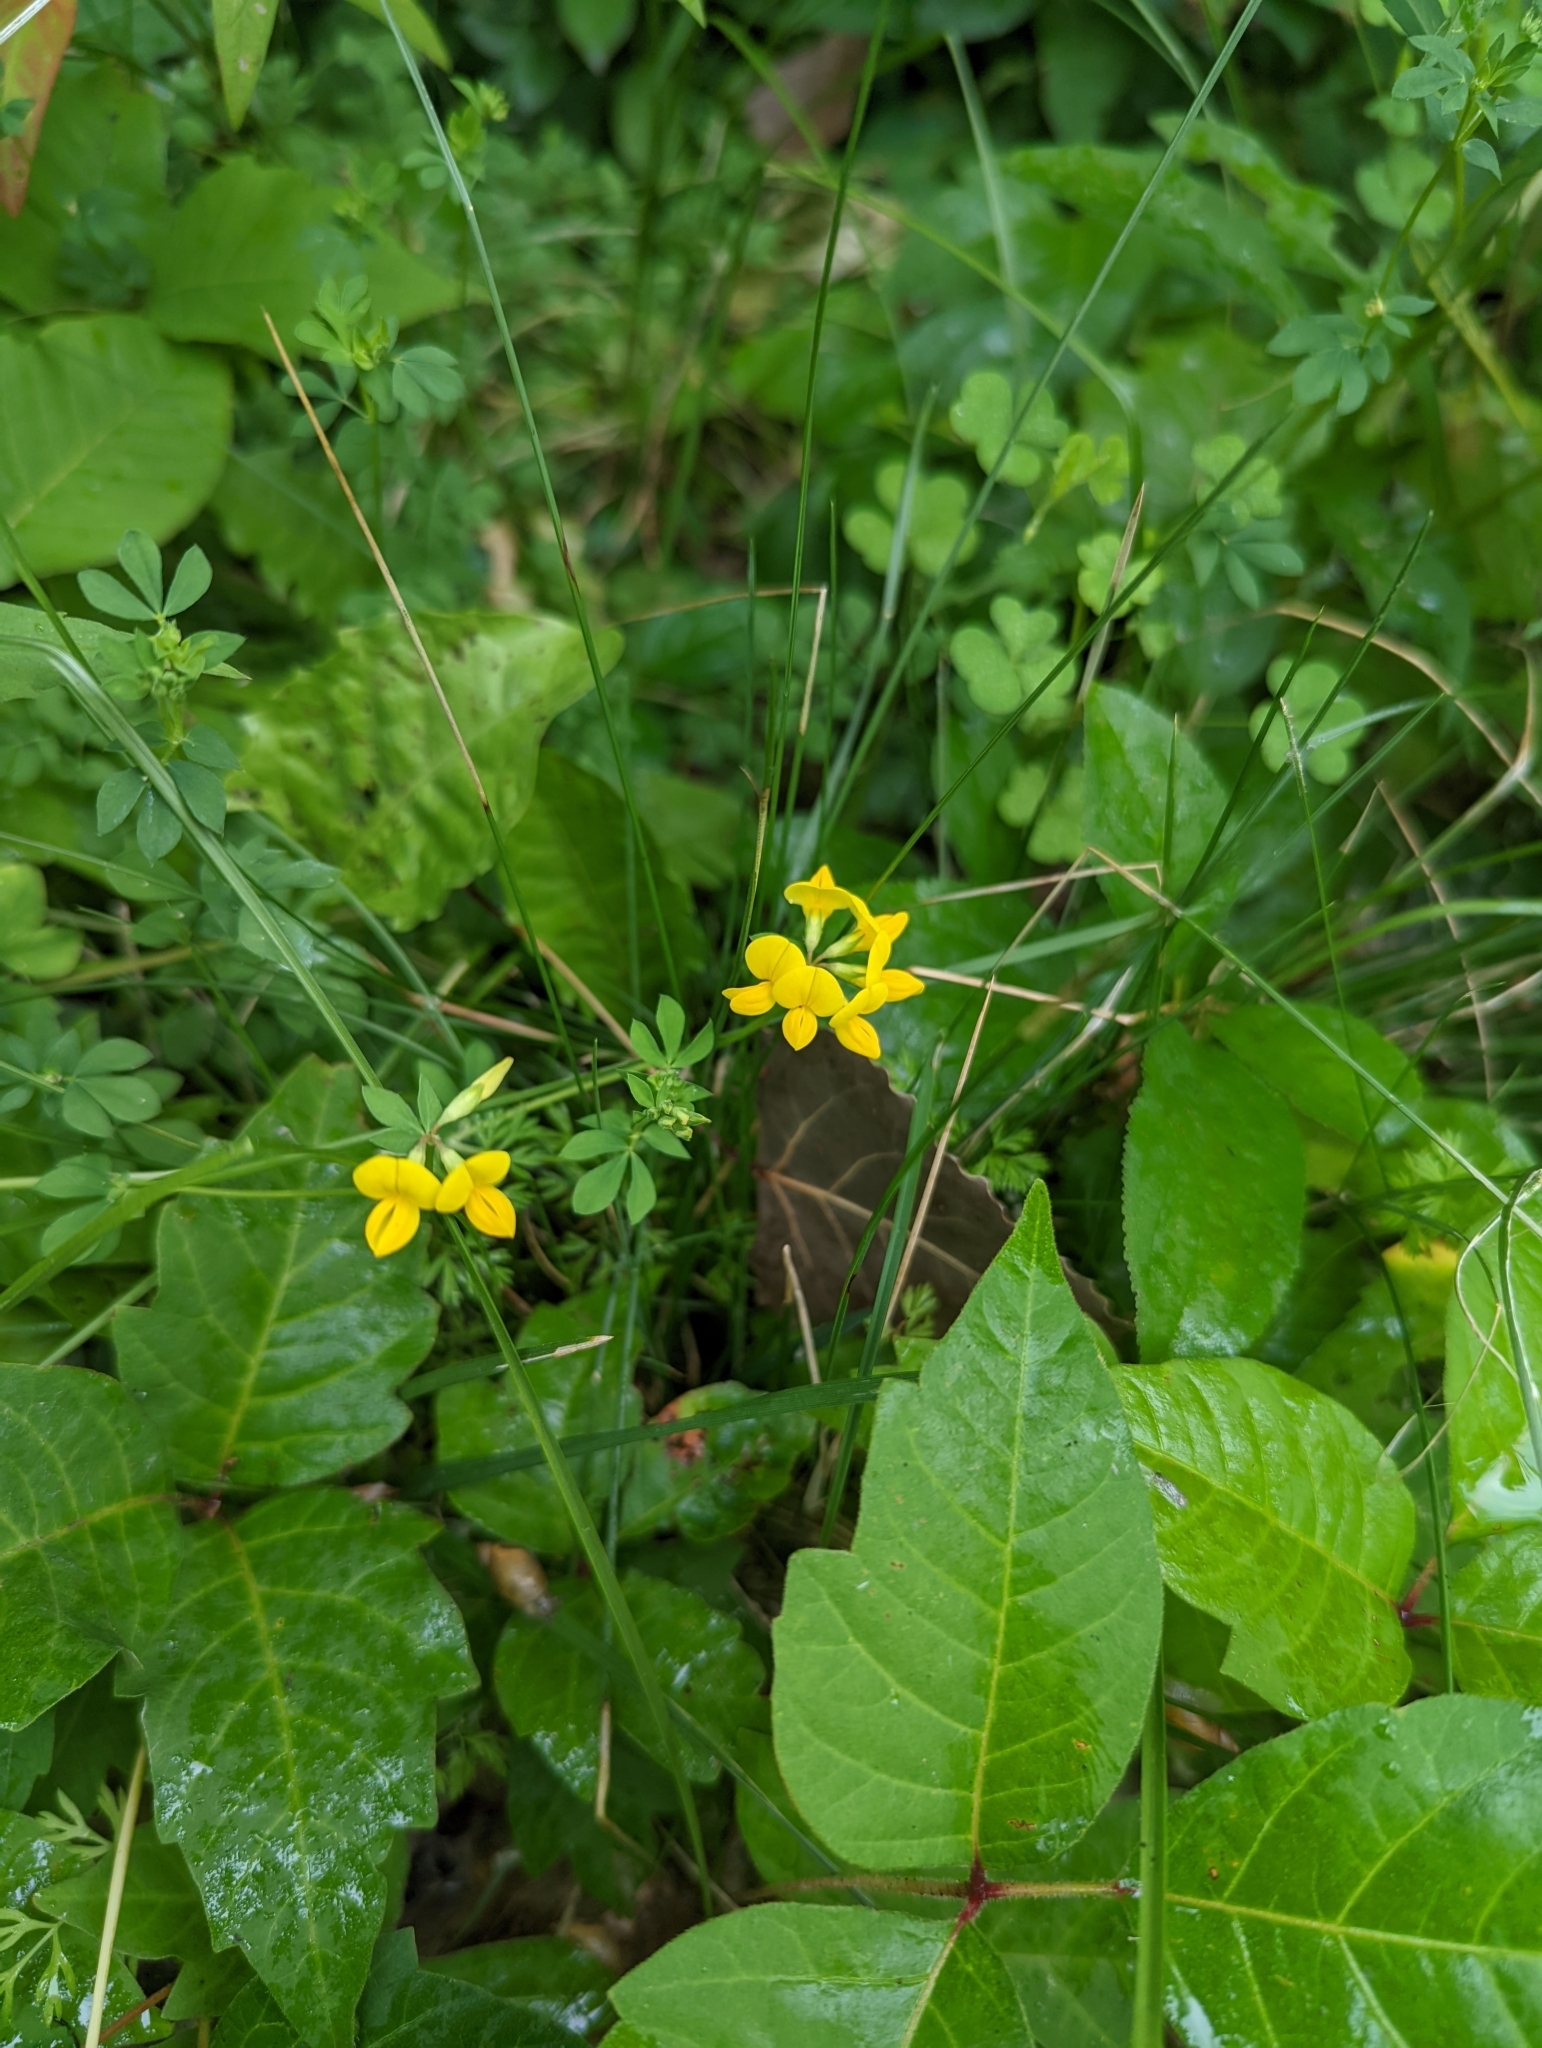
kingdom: Plantae
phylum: Tracheophyta
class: Magnoliopsida
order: Fabales
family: Fabaceae
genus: Lotus
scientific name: Lotus corniculatus
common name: Common bird's-foot-trefoil
